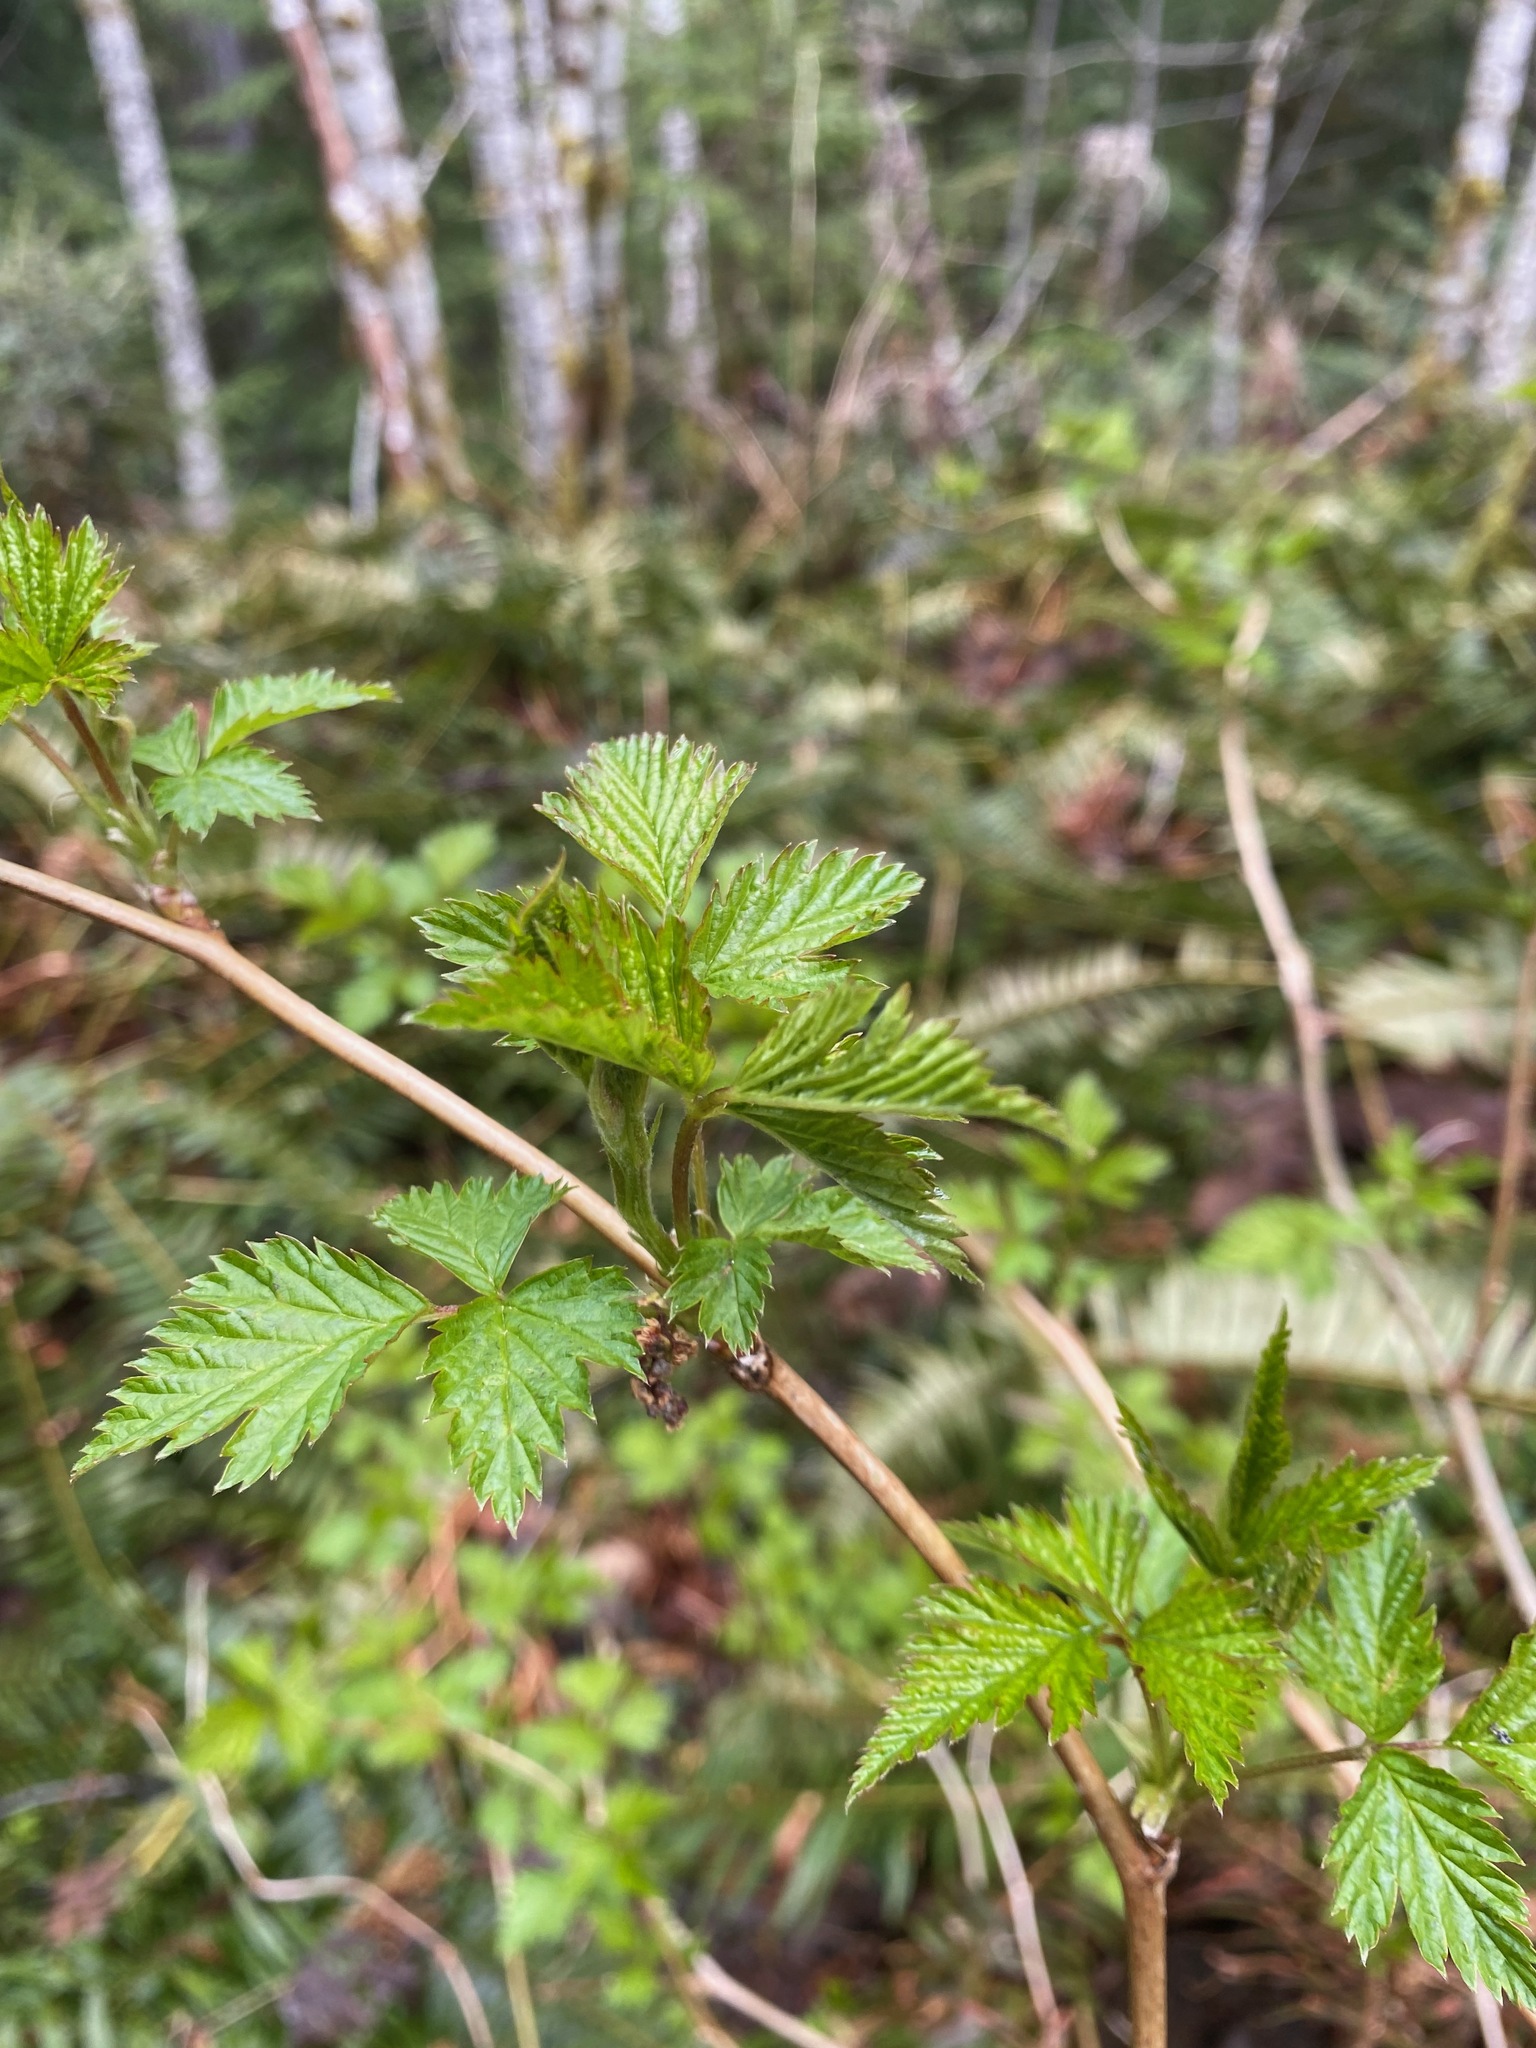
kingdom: Plantae
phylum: Tracheophyta
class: Magnoliopsida
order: Rosales
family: Rosaceae
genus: Rubus
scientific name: Rubus spectabilis
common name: Salmonberry
